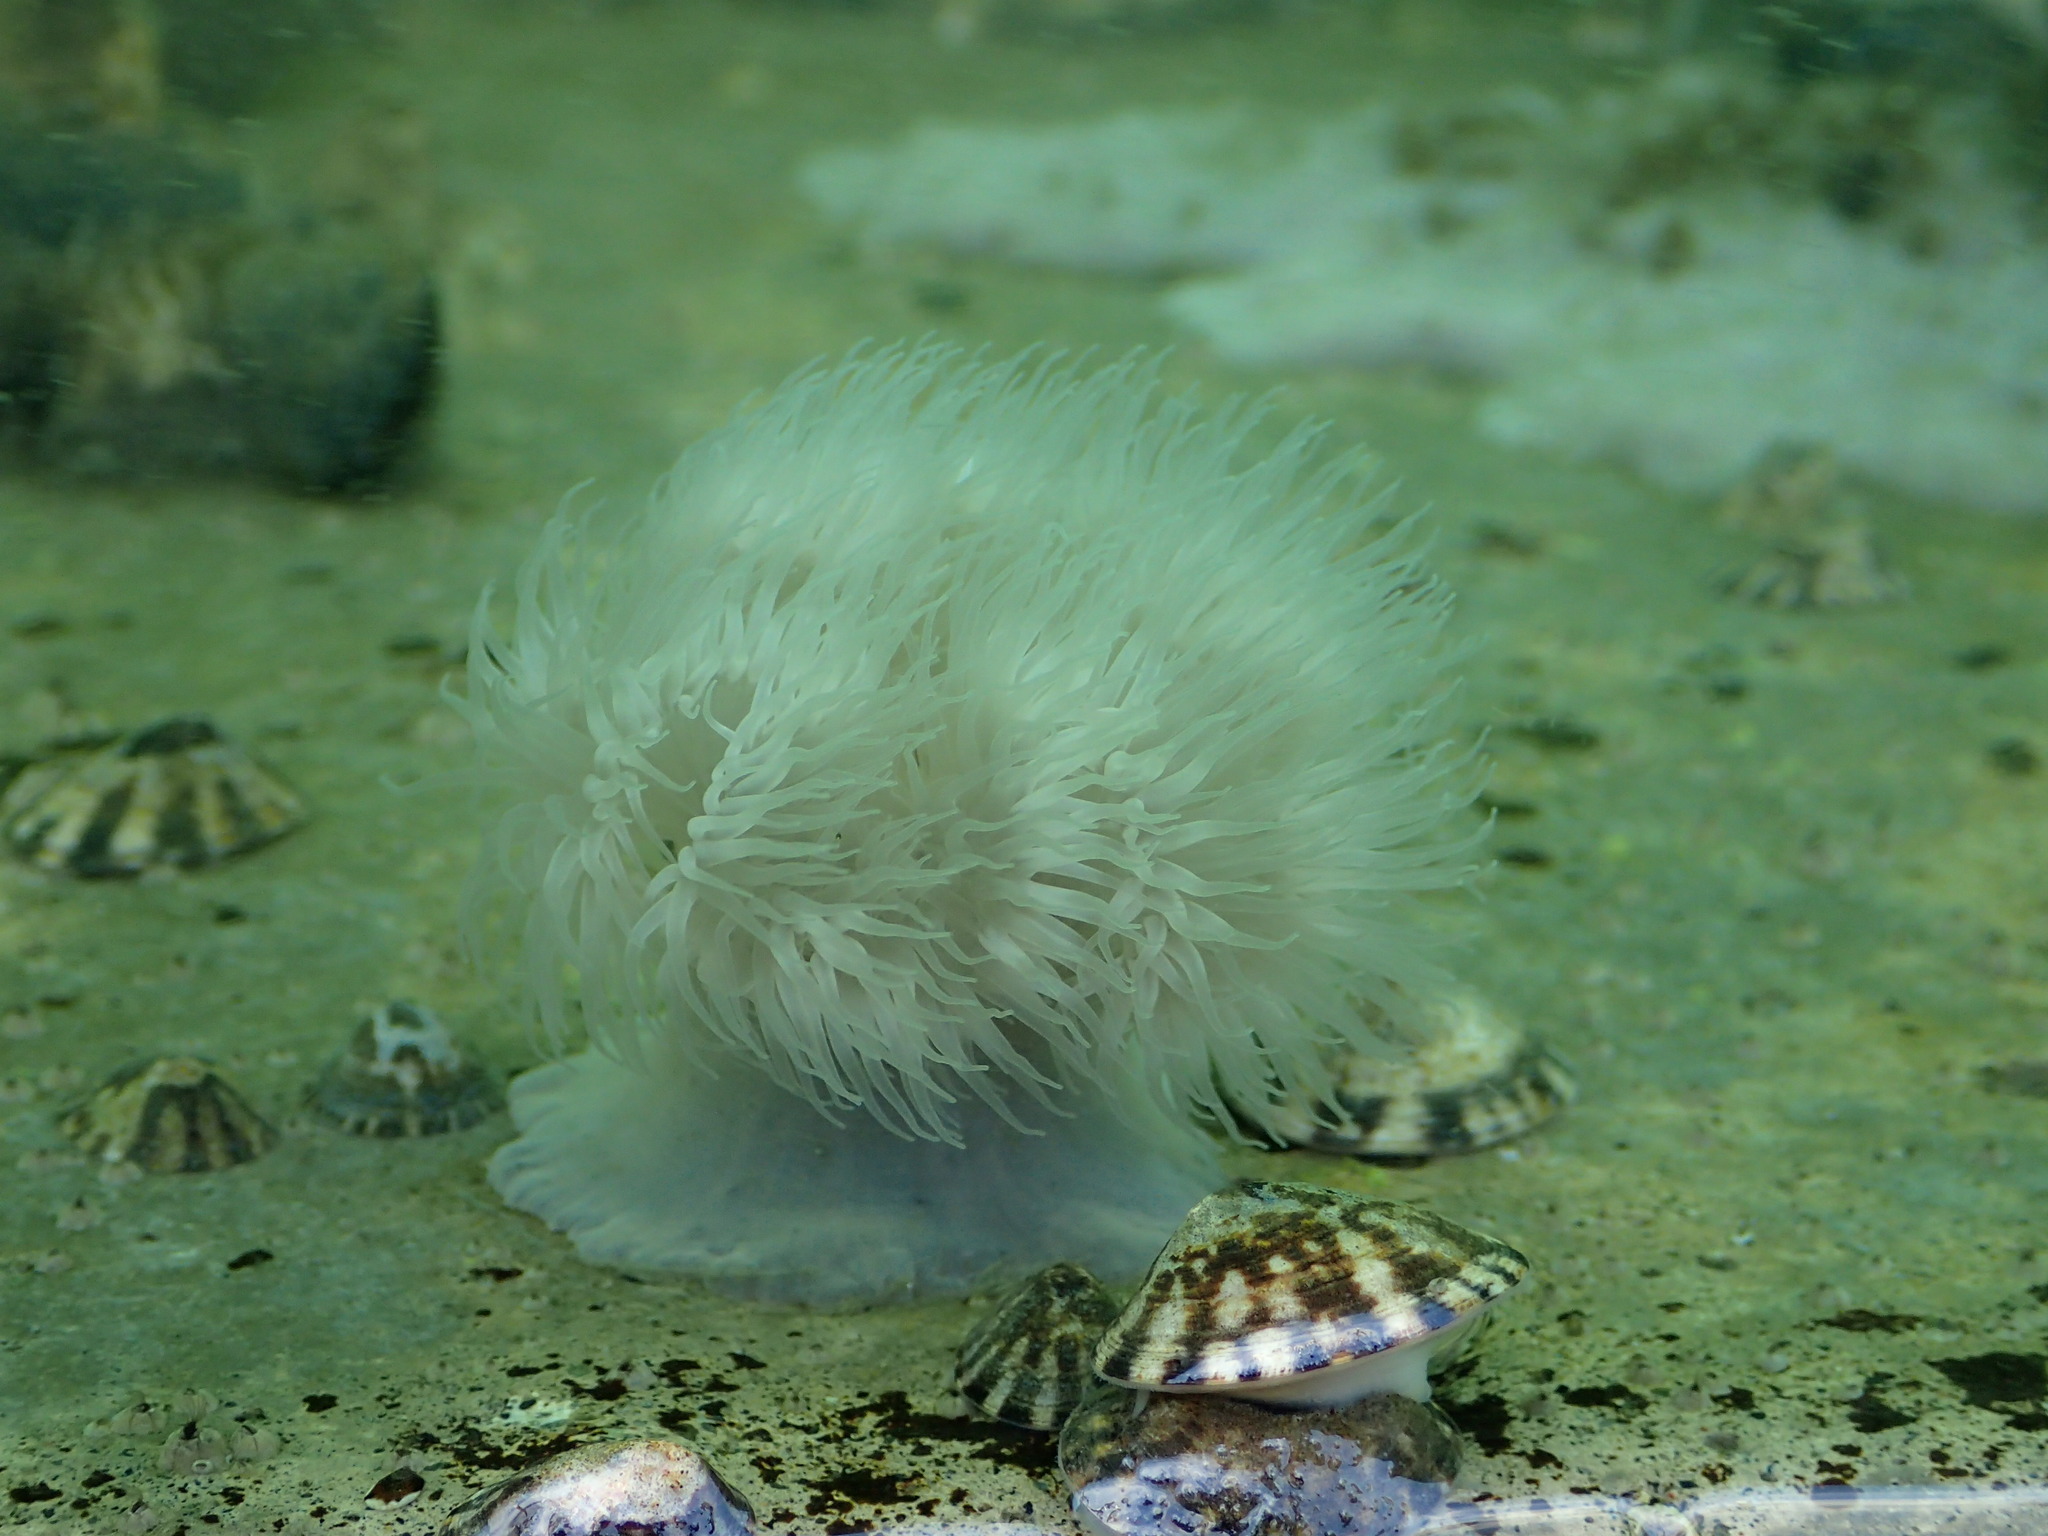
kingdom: Animalia
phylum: Cnidaria
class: Anthozoa
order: Actiniaria
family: Metridiidae
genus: Metridium
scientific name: Metridium senile
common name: Clonal plumose anemone
